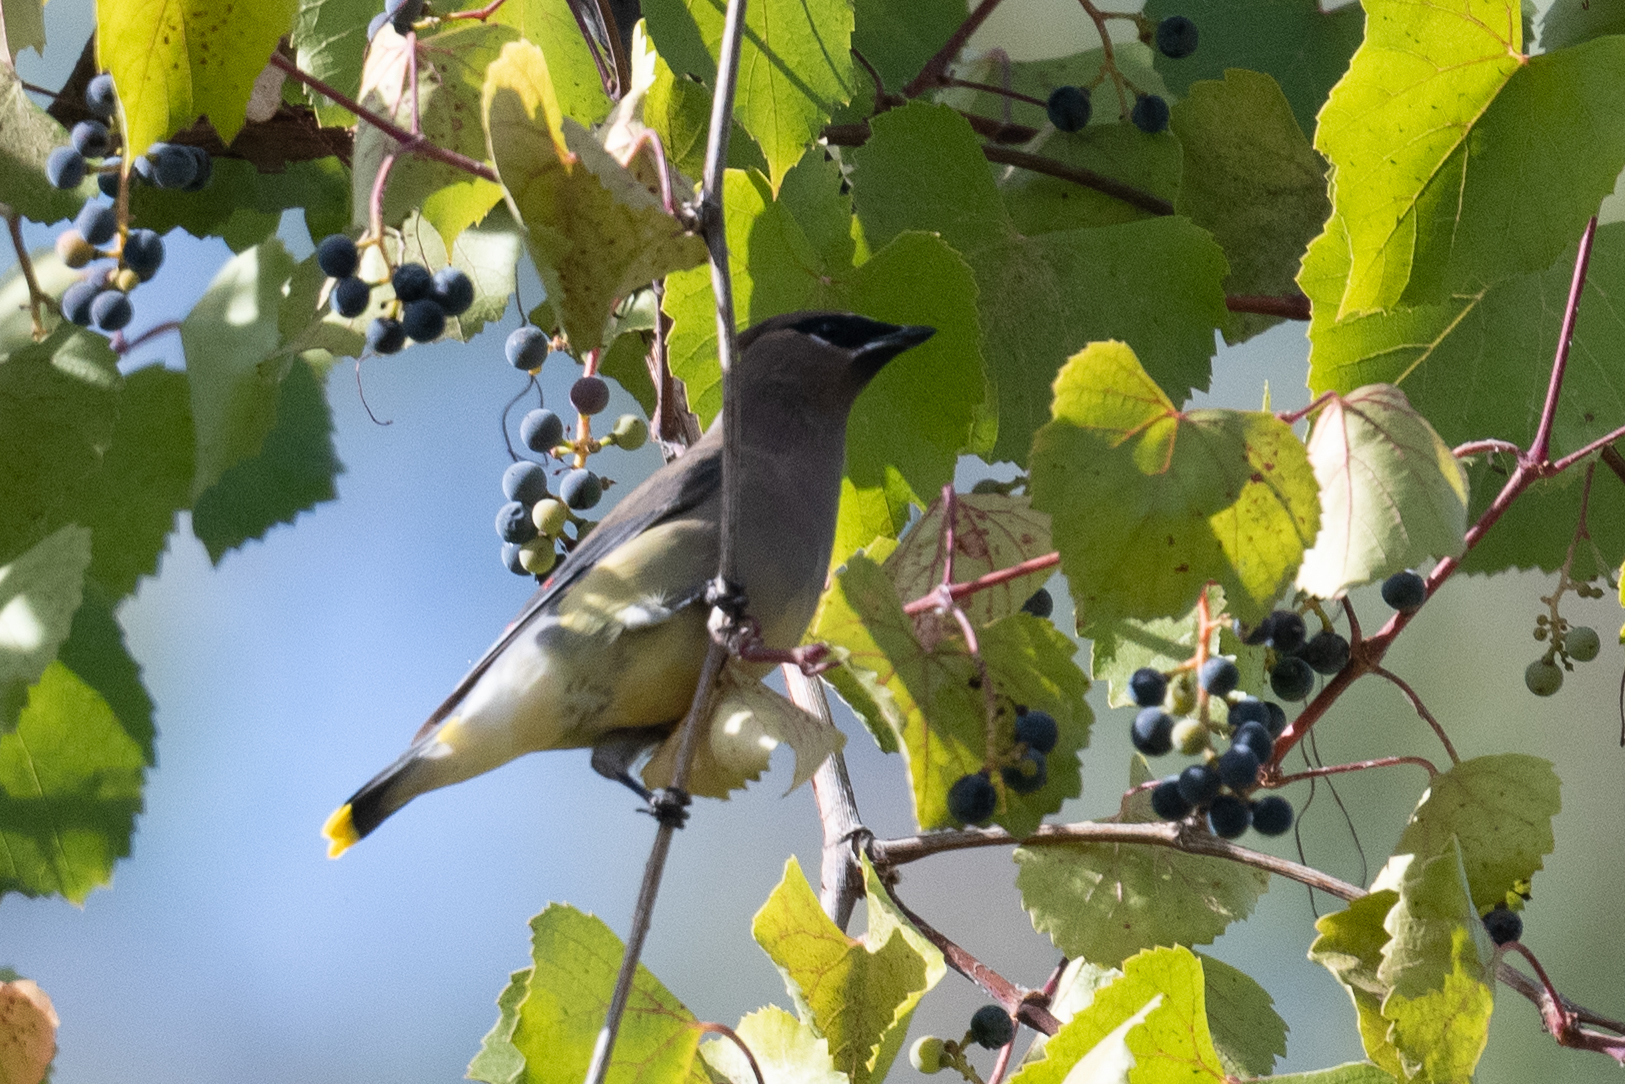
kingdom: Animalia
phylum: Chordata
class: Aves
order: Passeriformes
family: Bombycillidae
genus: Bombycilla
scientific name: Bombycilla cedrorum
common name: Cedar waxwing
